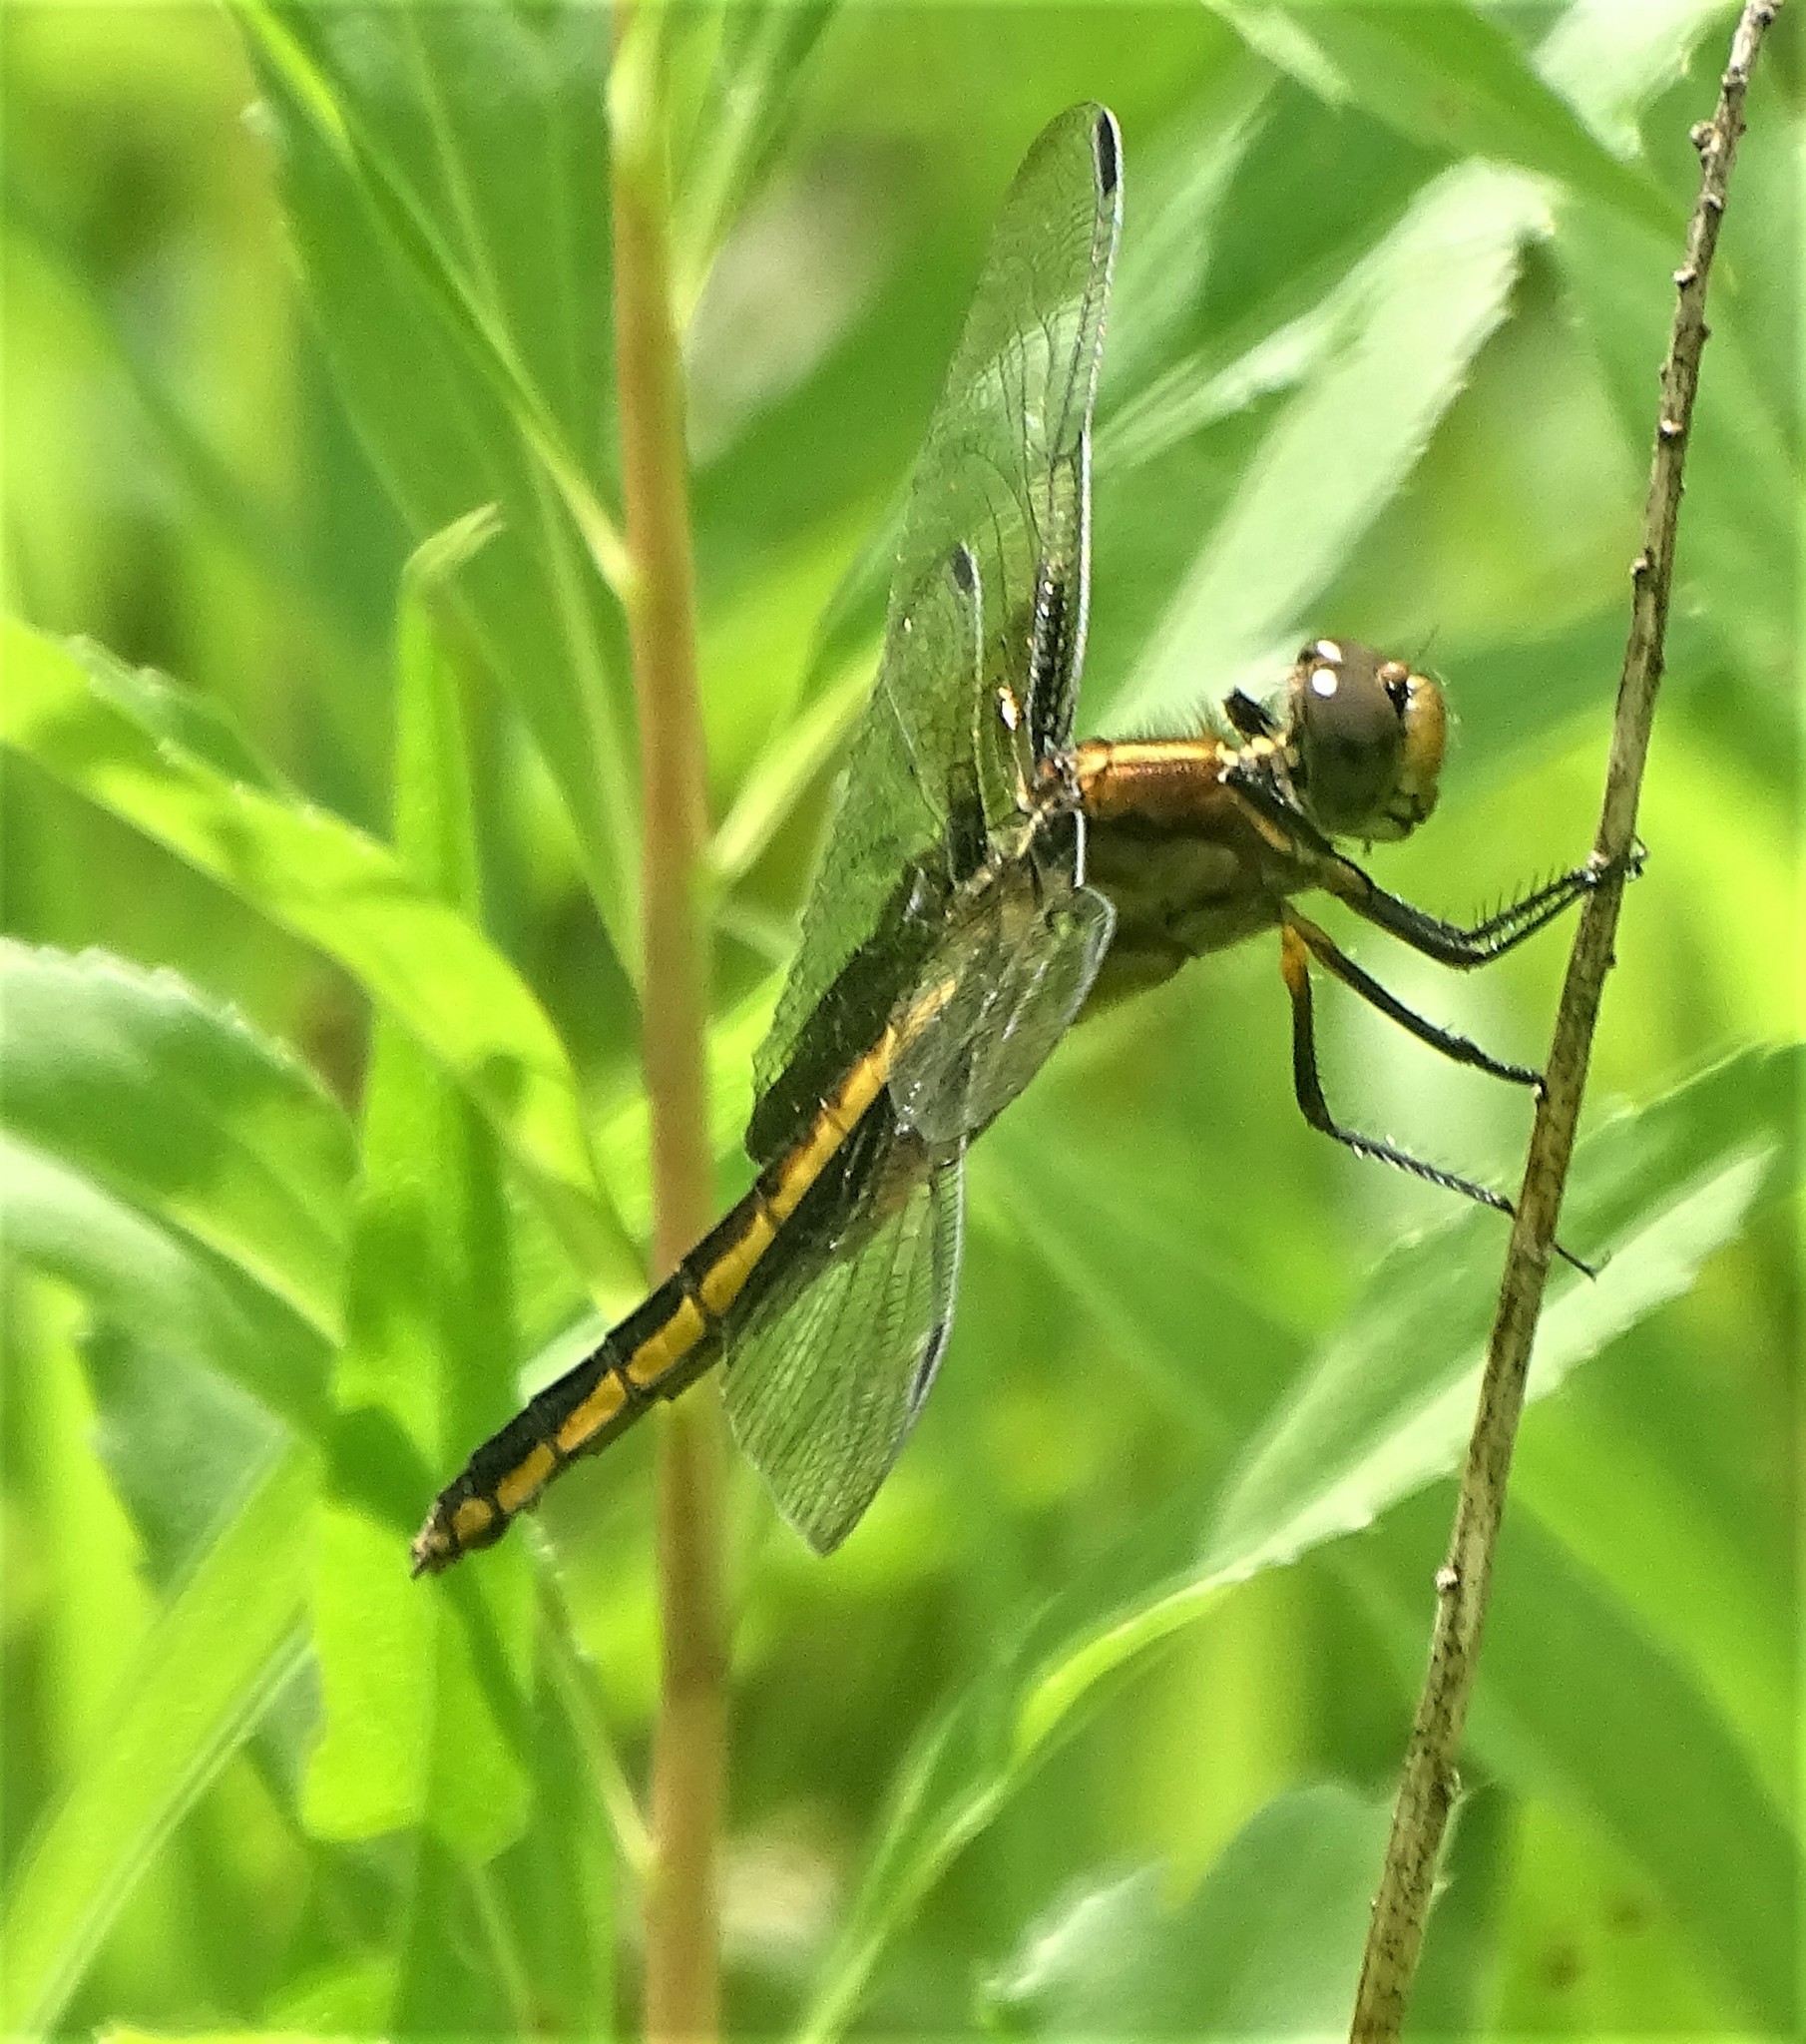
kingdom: Animalia
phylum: Arthropoda
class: Insecta
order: Odonata
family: Libellulidae
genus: Libellula
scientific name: Libellula luctuosa
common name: Widow skimmer
